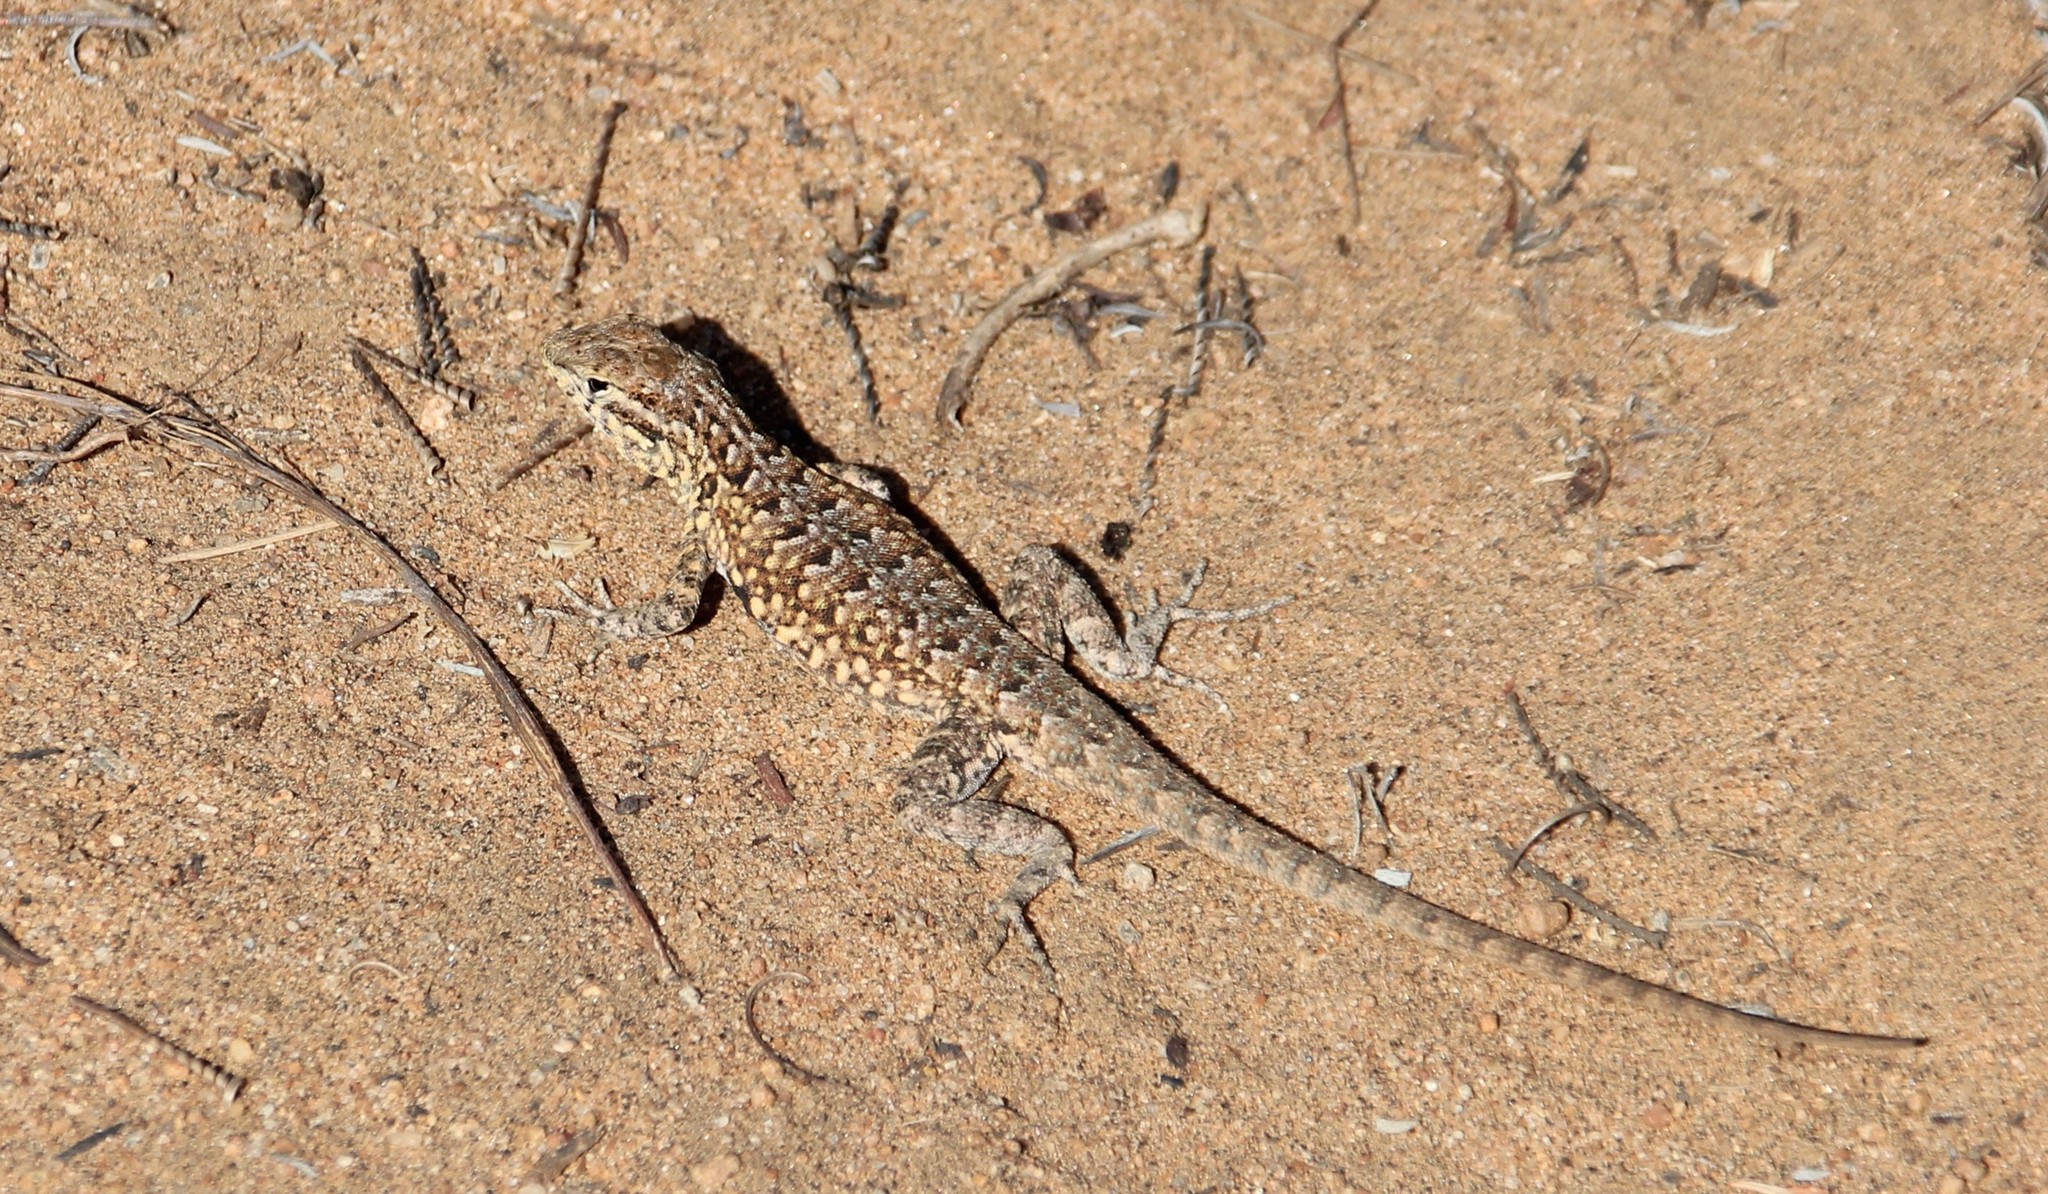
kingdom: Animalia
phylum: Chordata
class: Squamata
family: Phrynosomatidae
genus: Uta
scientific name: Uta stansburiana
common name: Side-blotched lizard
